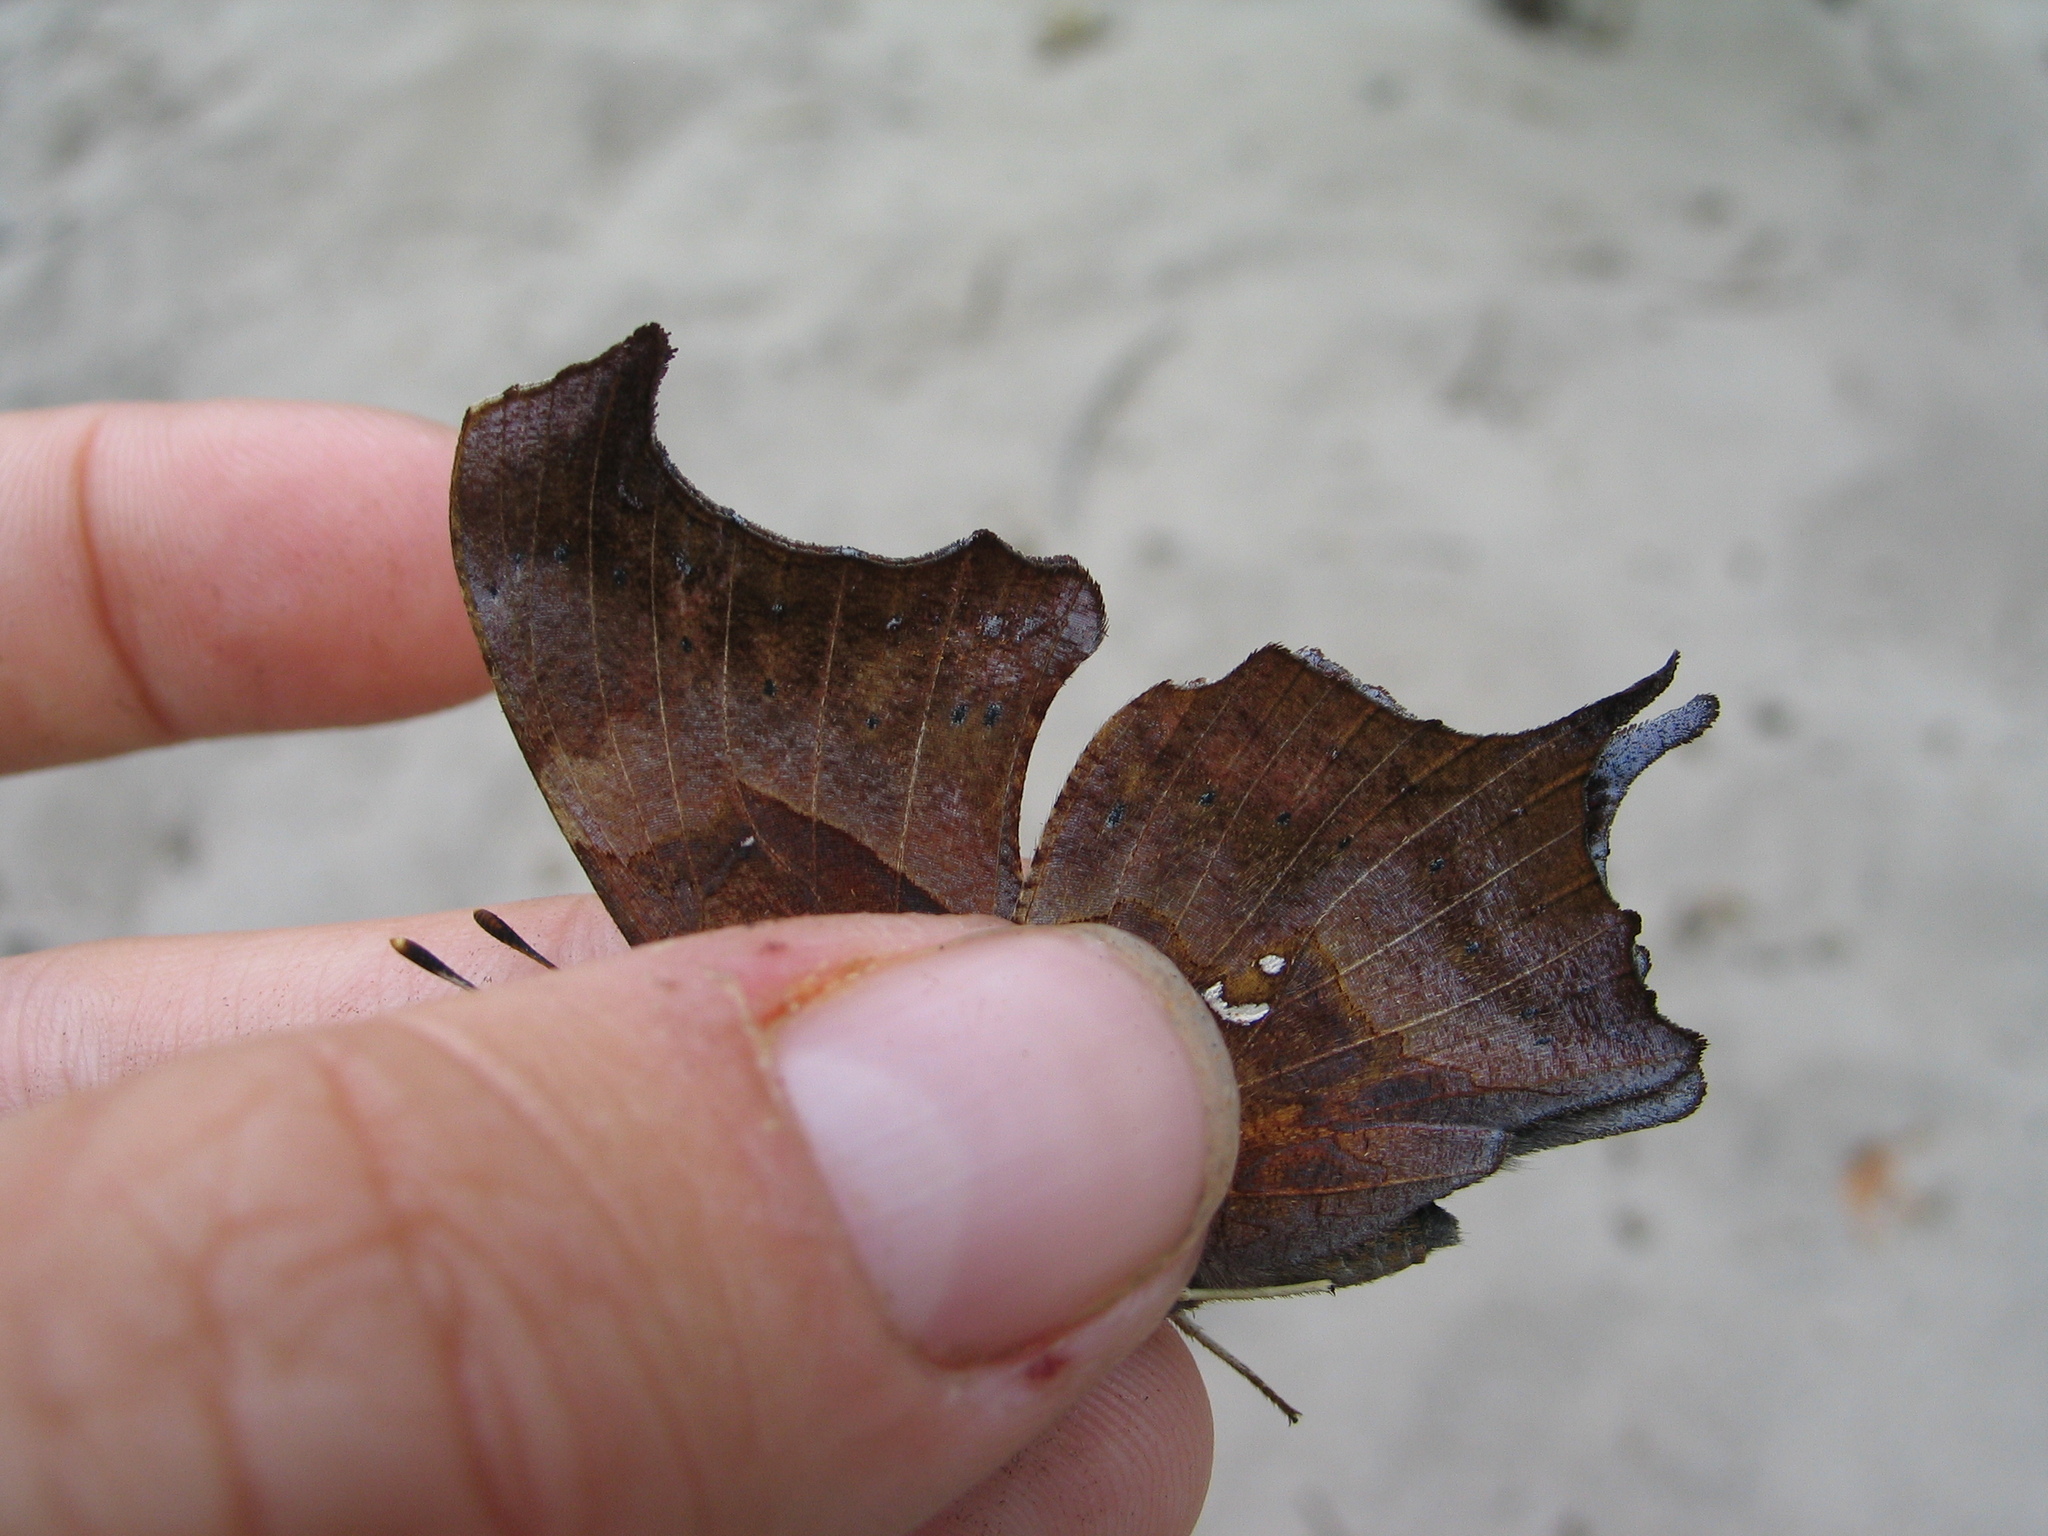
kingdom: Animalia
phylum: Arthropoda
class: Insecta
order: Lepidoptera
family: Nymphalidae
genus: Polygonia
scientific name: Polygonia interrogationis
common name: Question mark
